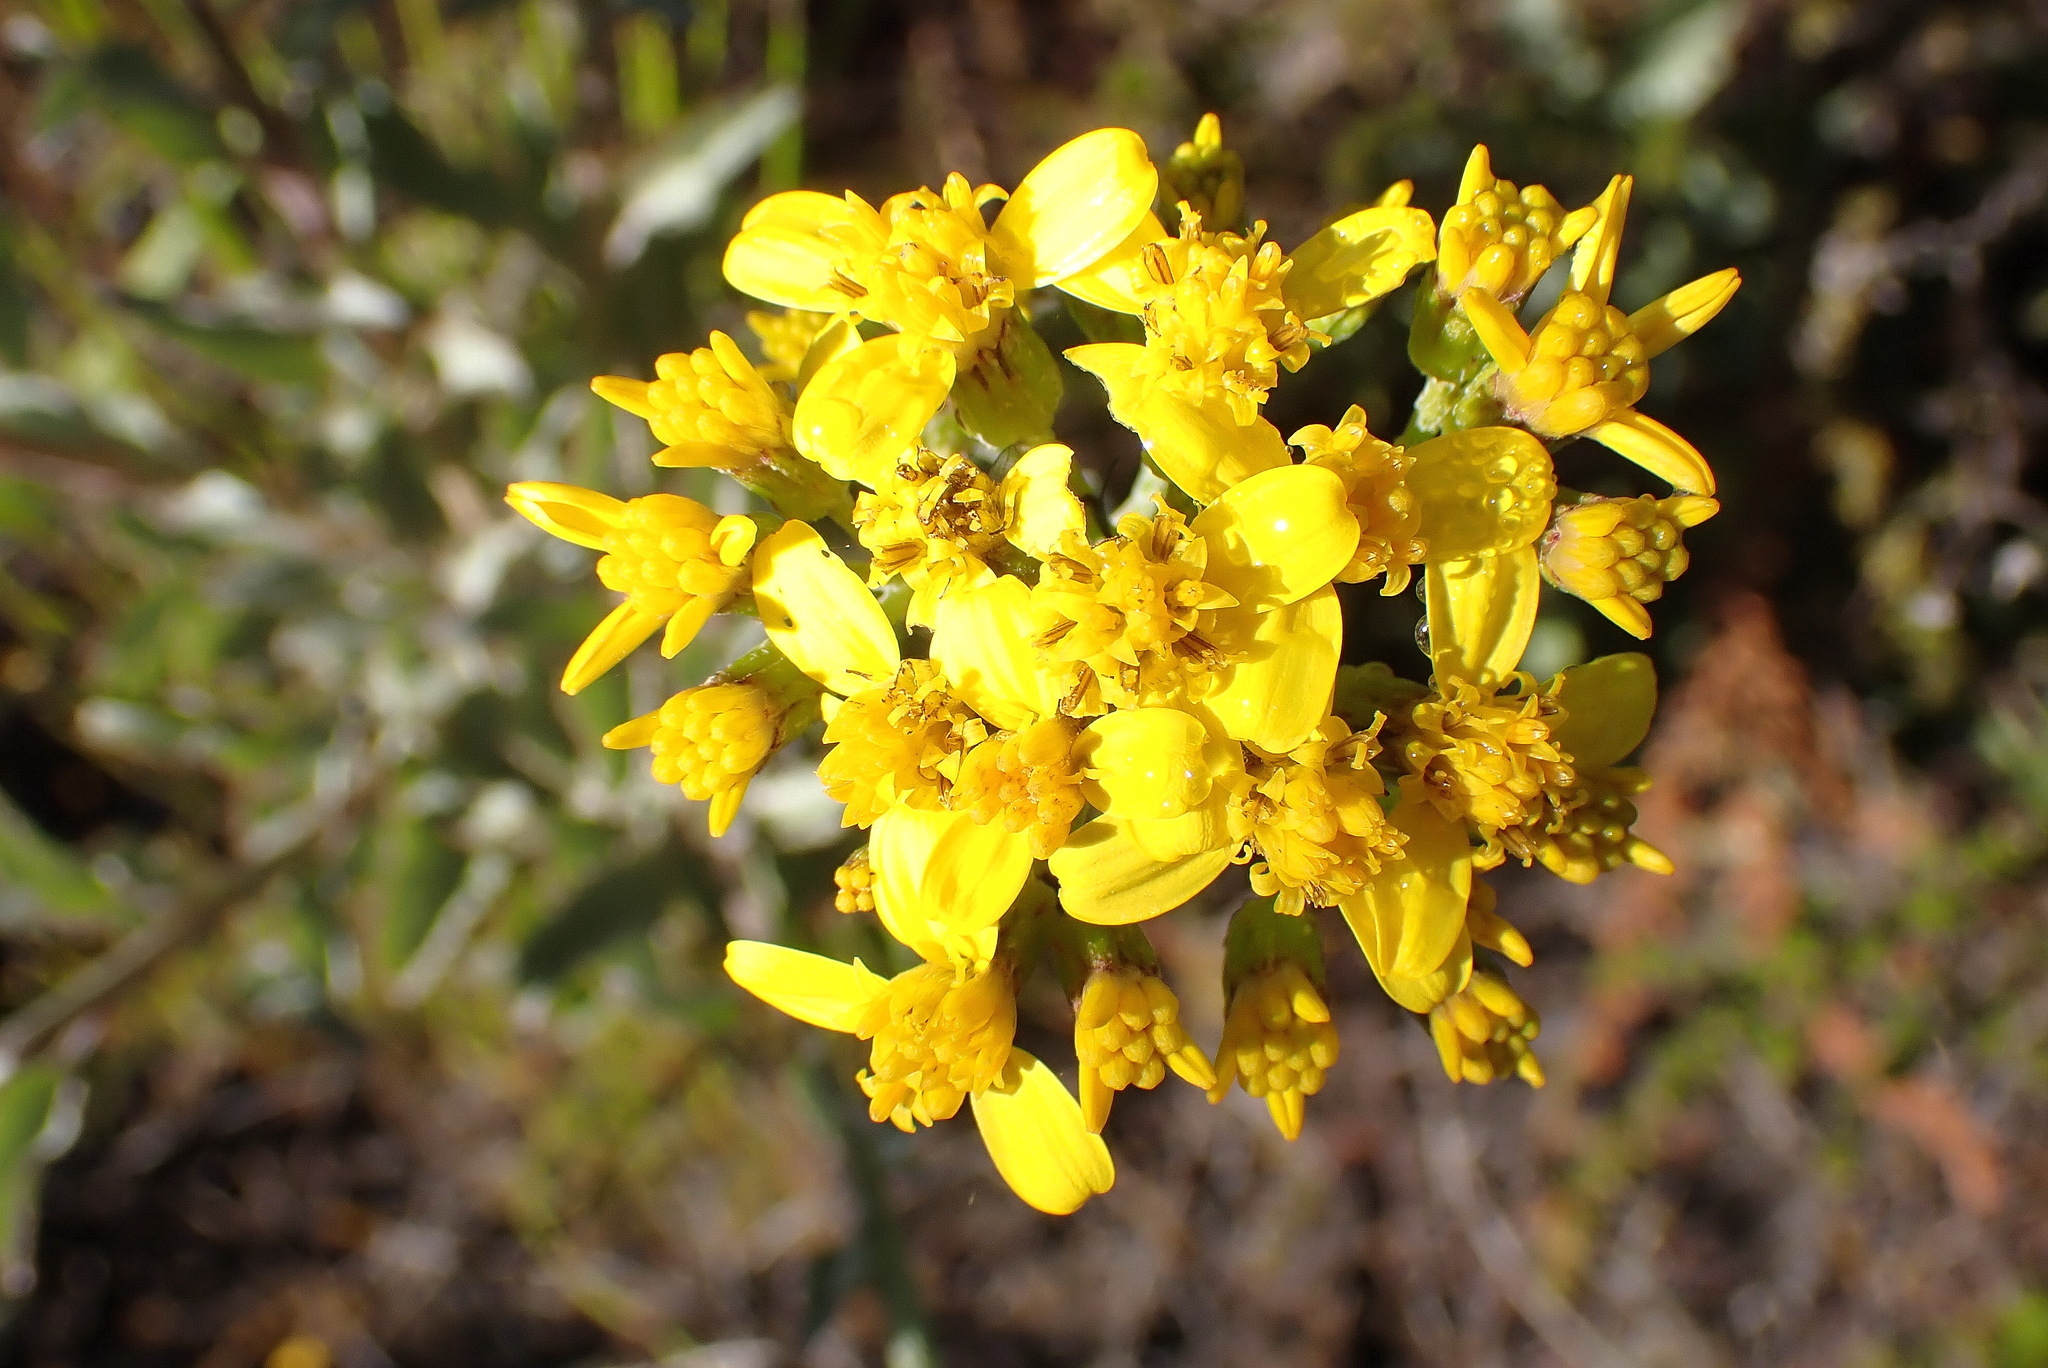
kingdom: Plantae
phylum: Tracheophyta
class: Magnoliopsida
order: Asterales
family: Asteraceae
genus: Senecio
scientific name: Senecio crenatus
